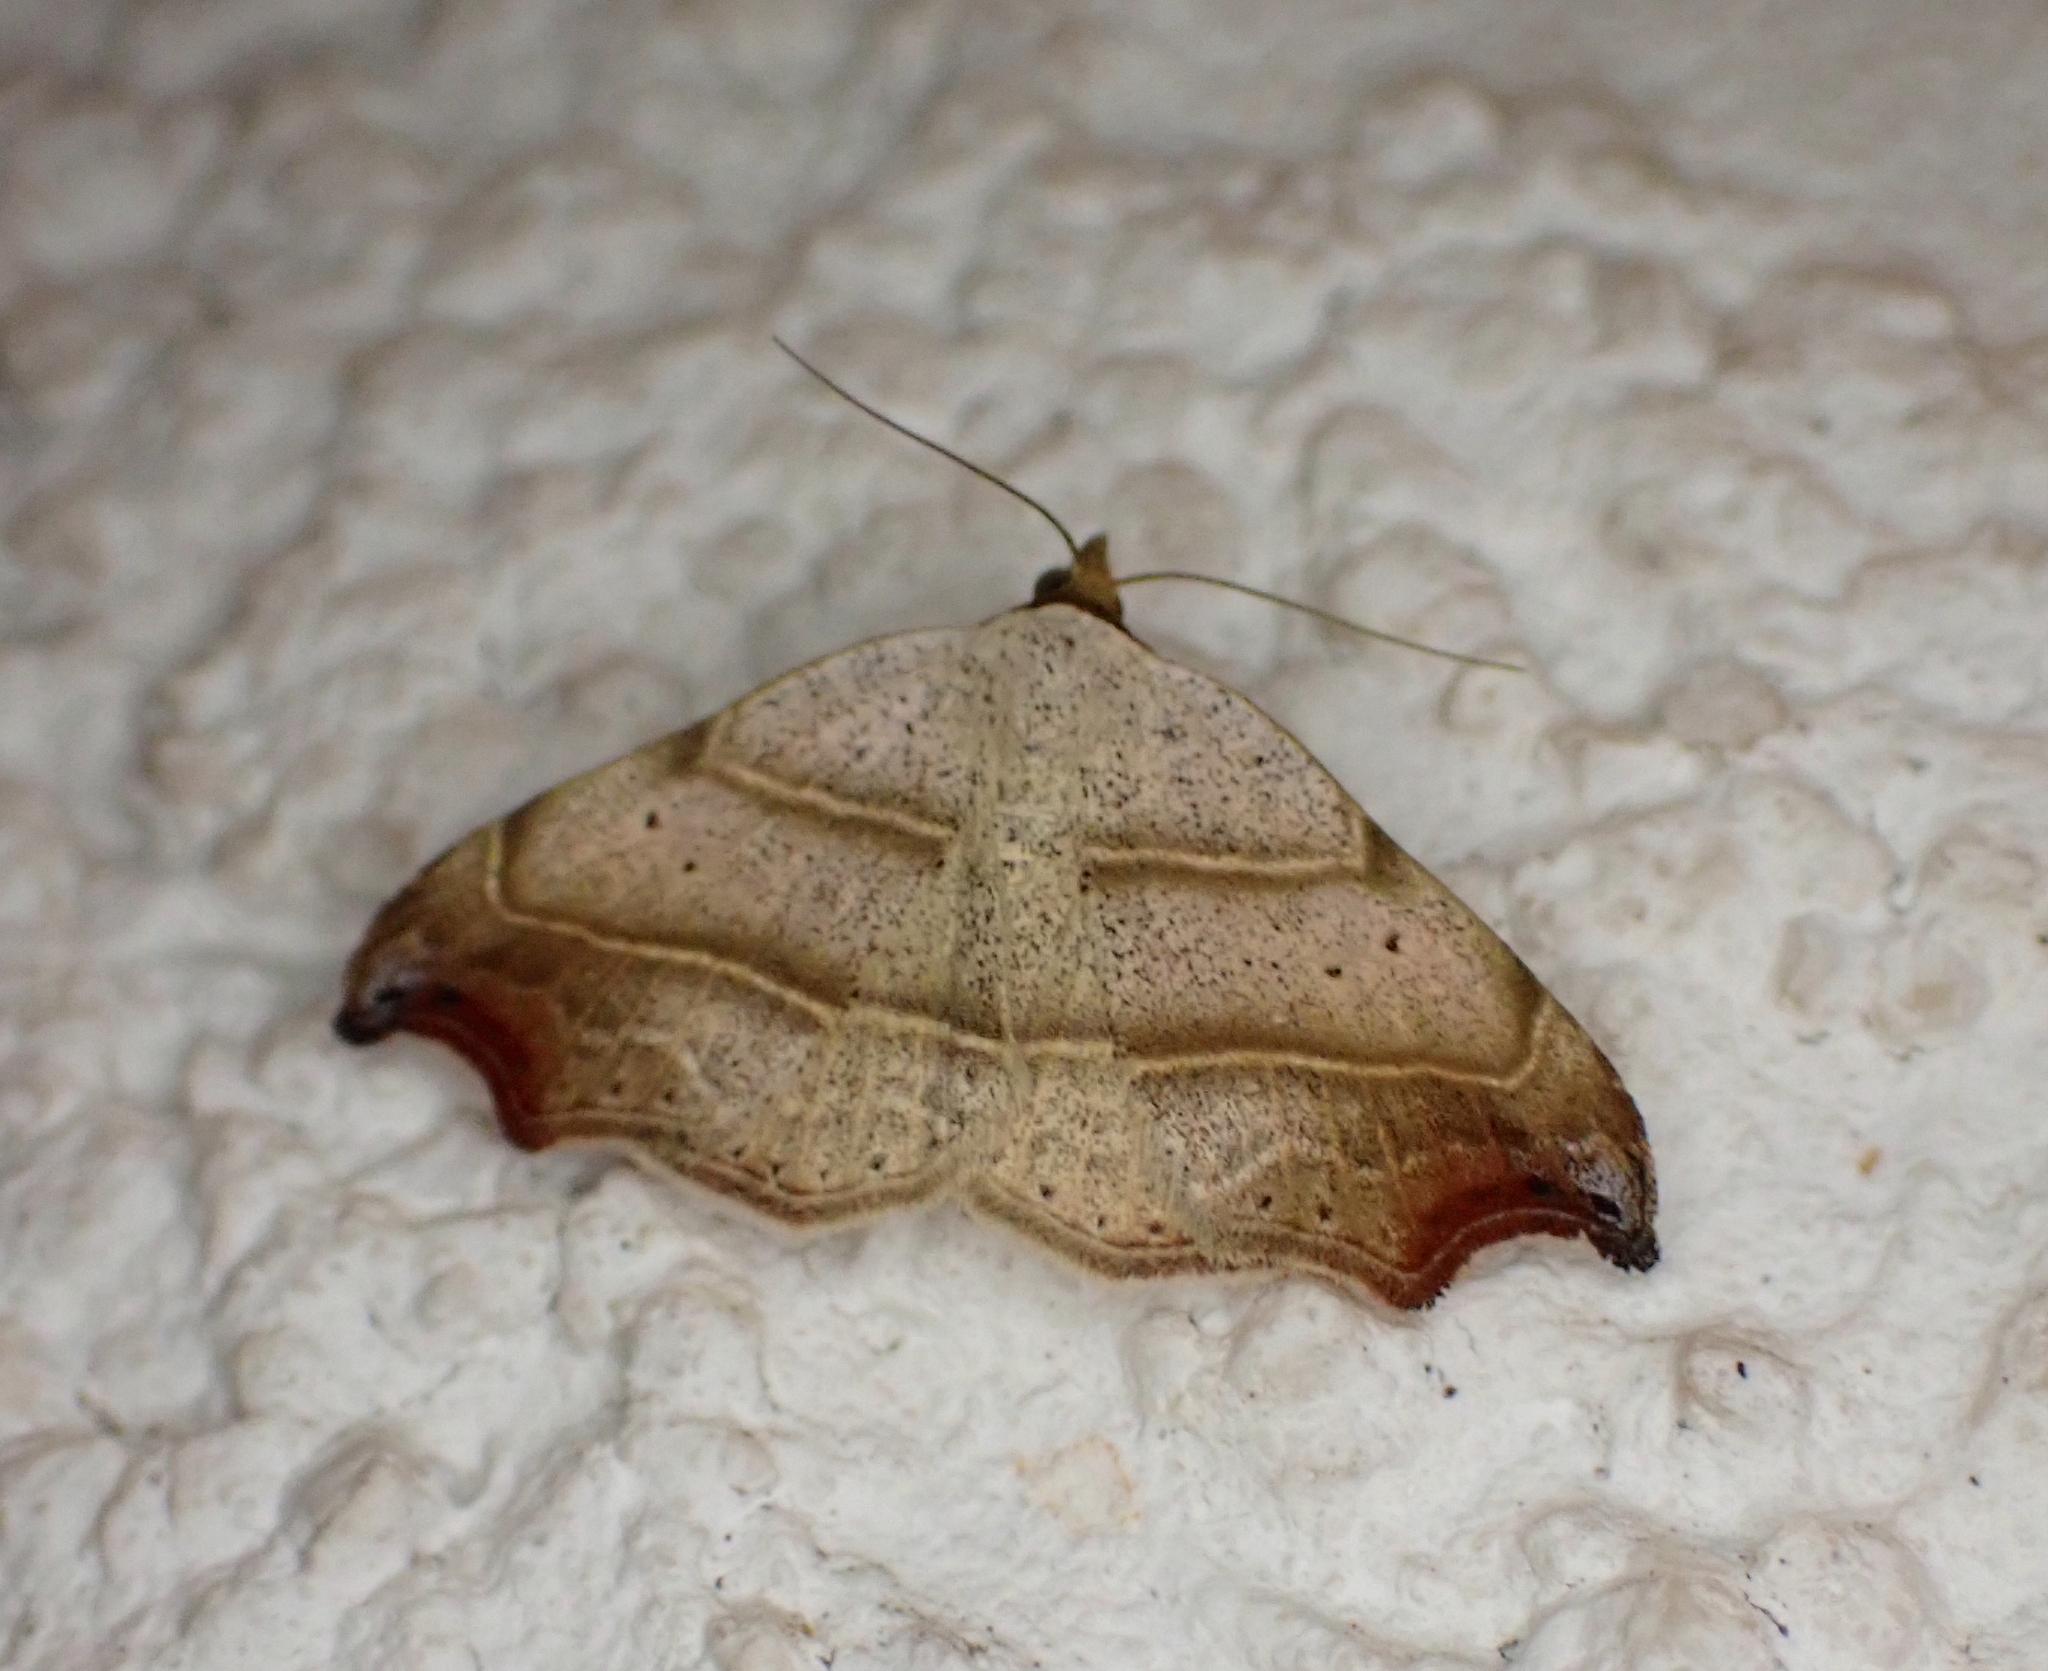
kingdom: Animalia
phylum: Arthropoda
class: Insecta
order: Lepidoptera
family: Erebidae
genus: Laspeyria
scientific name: Laspeyria flexula
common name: Beautiful hook-tip
